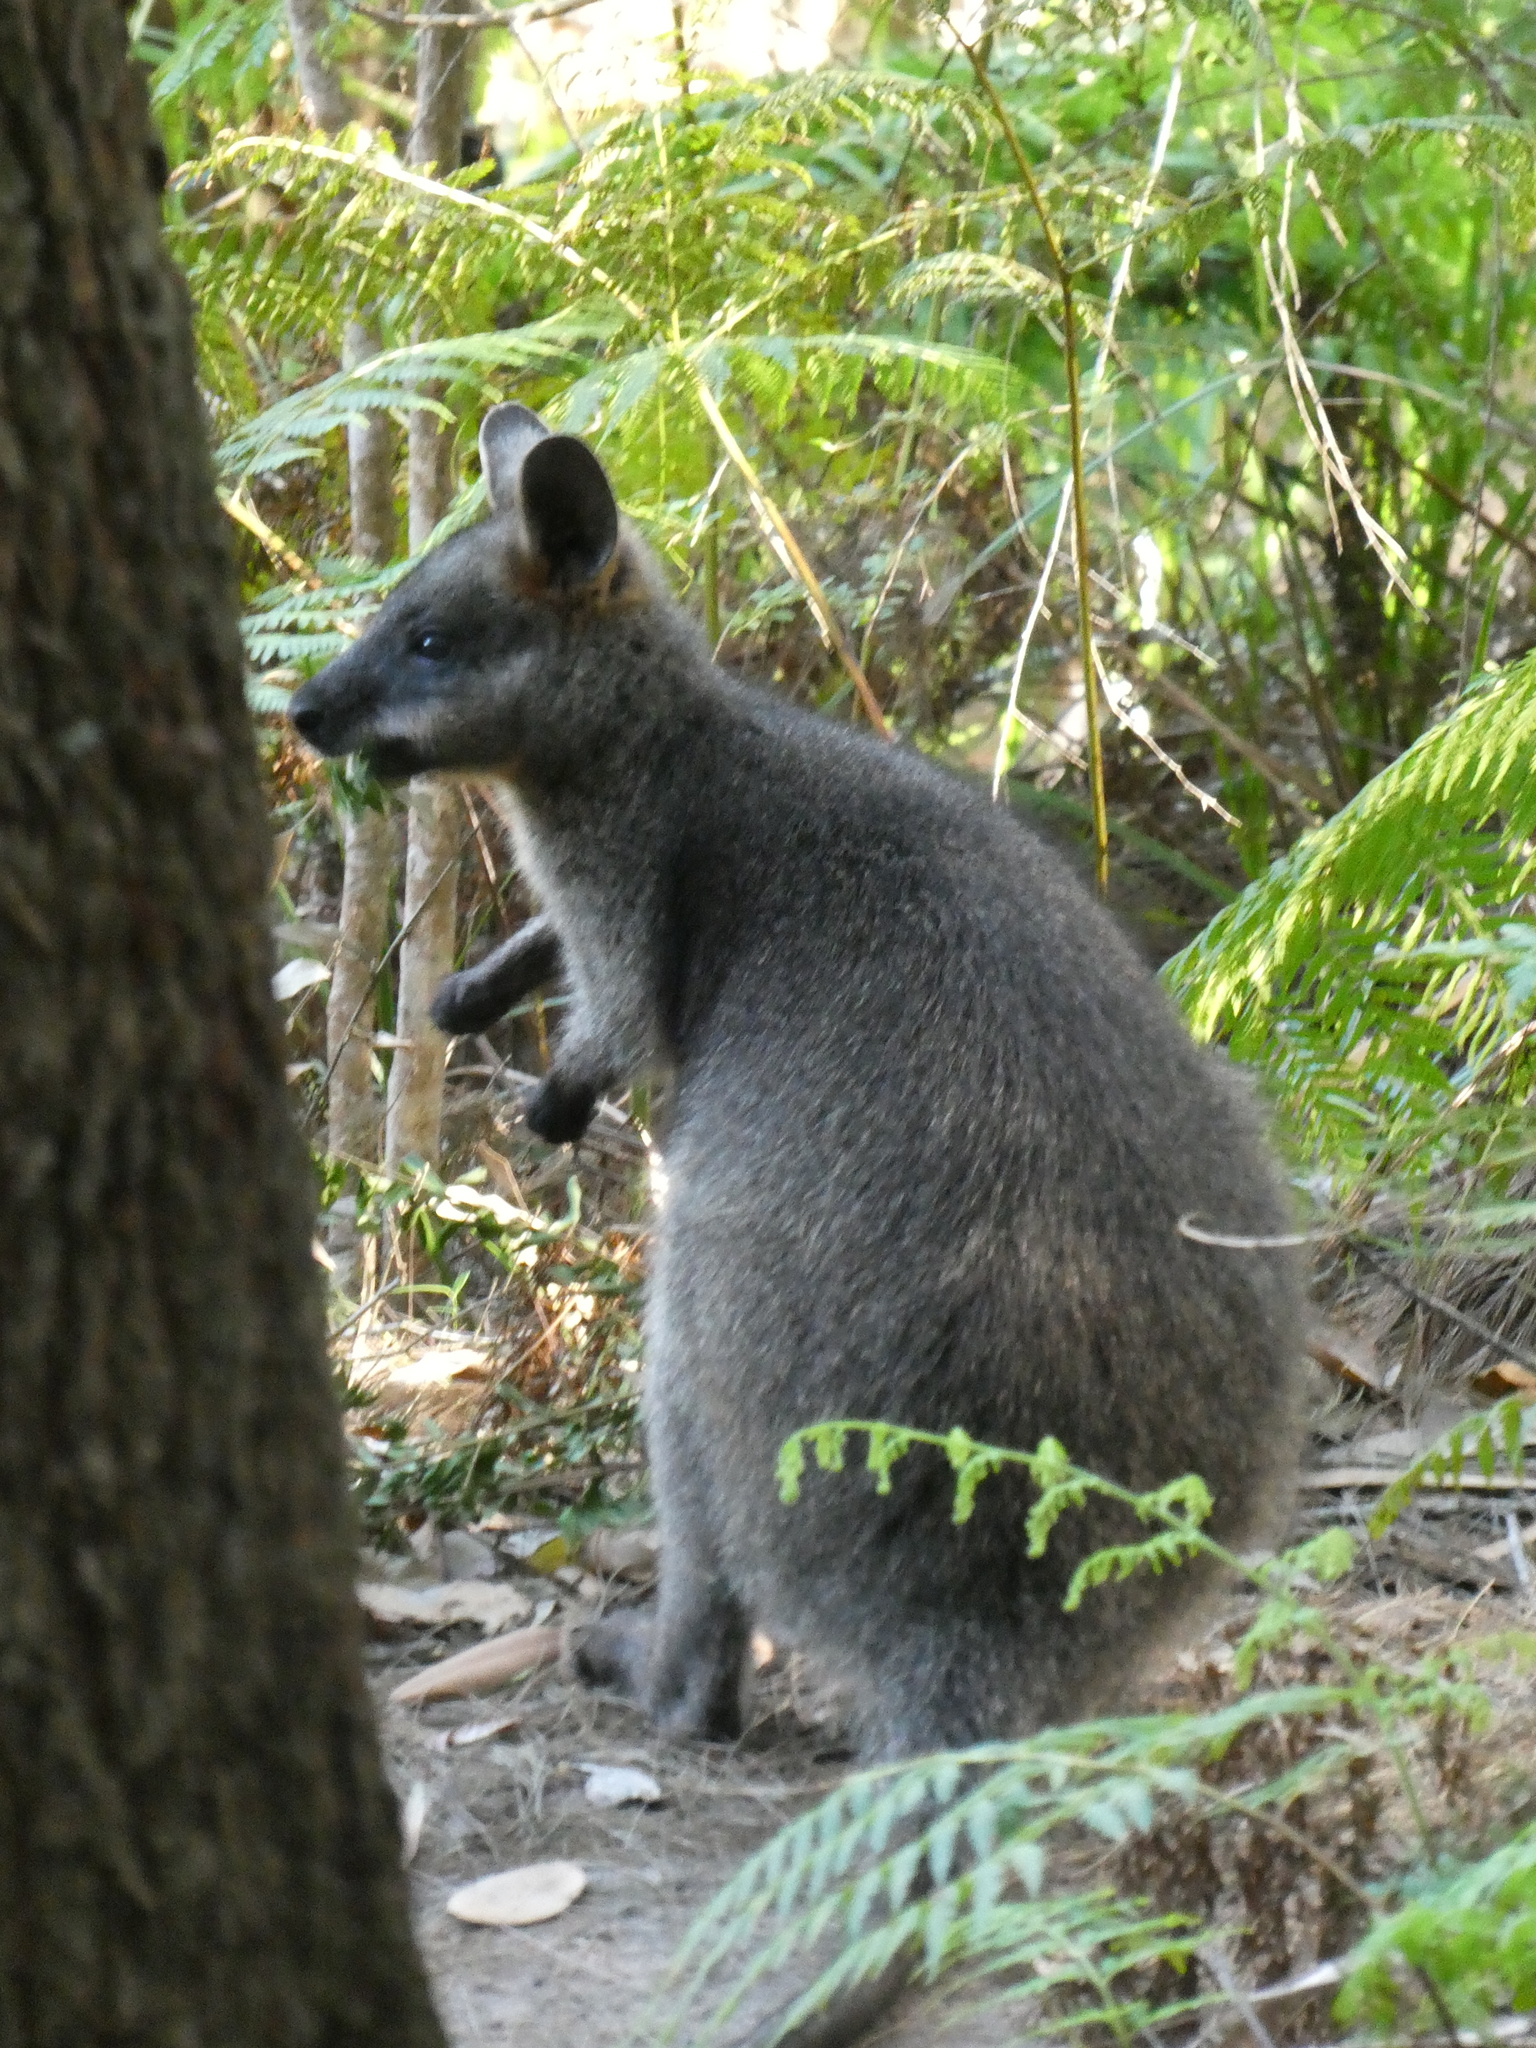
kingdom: Animalia
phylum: Chordata
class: Mammalia
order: Diprotodontia
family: Macropodidae
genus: Wallabia
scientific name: Wallabia bicolor
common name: Swamp wallaby
